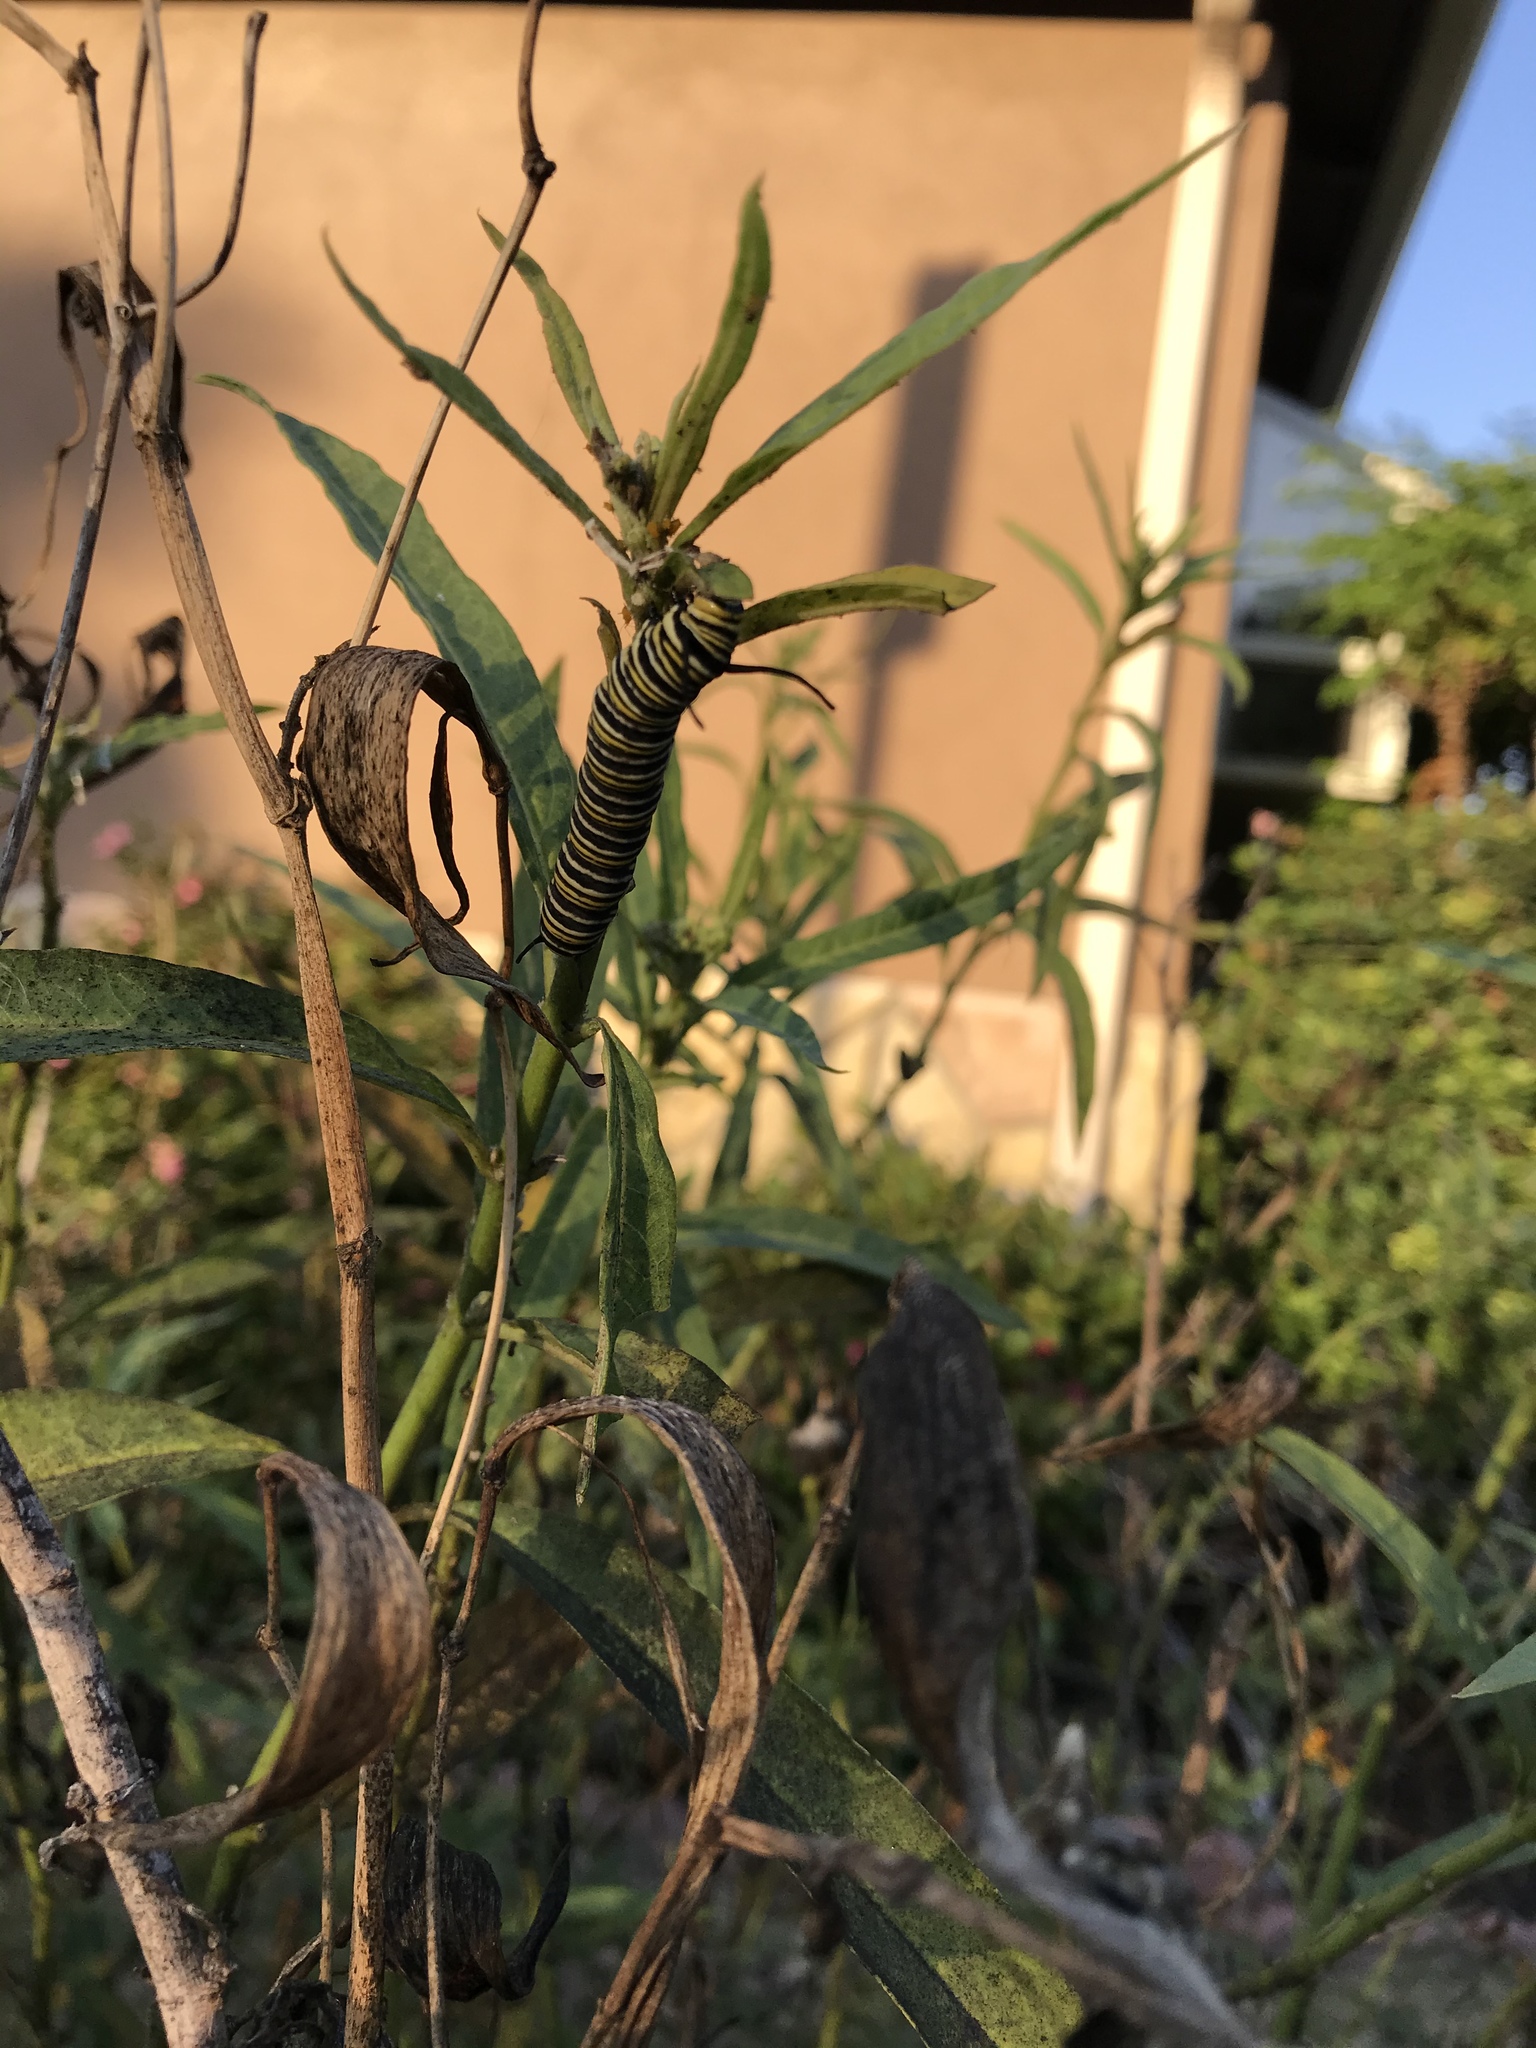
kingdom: Animalia
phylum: Arthropoda
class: Insecta
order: Lepidoptera
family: Nymphalidae
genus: Danaus
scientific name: Danaus plexippus
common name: Monarch
